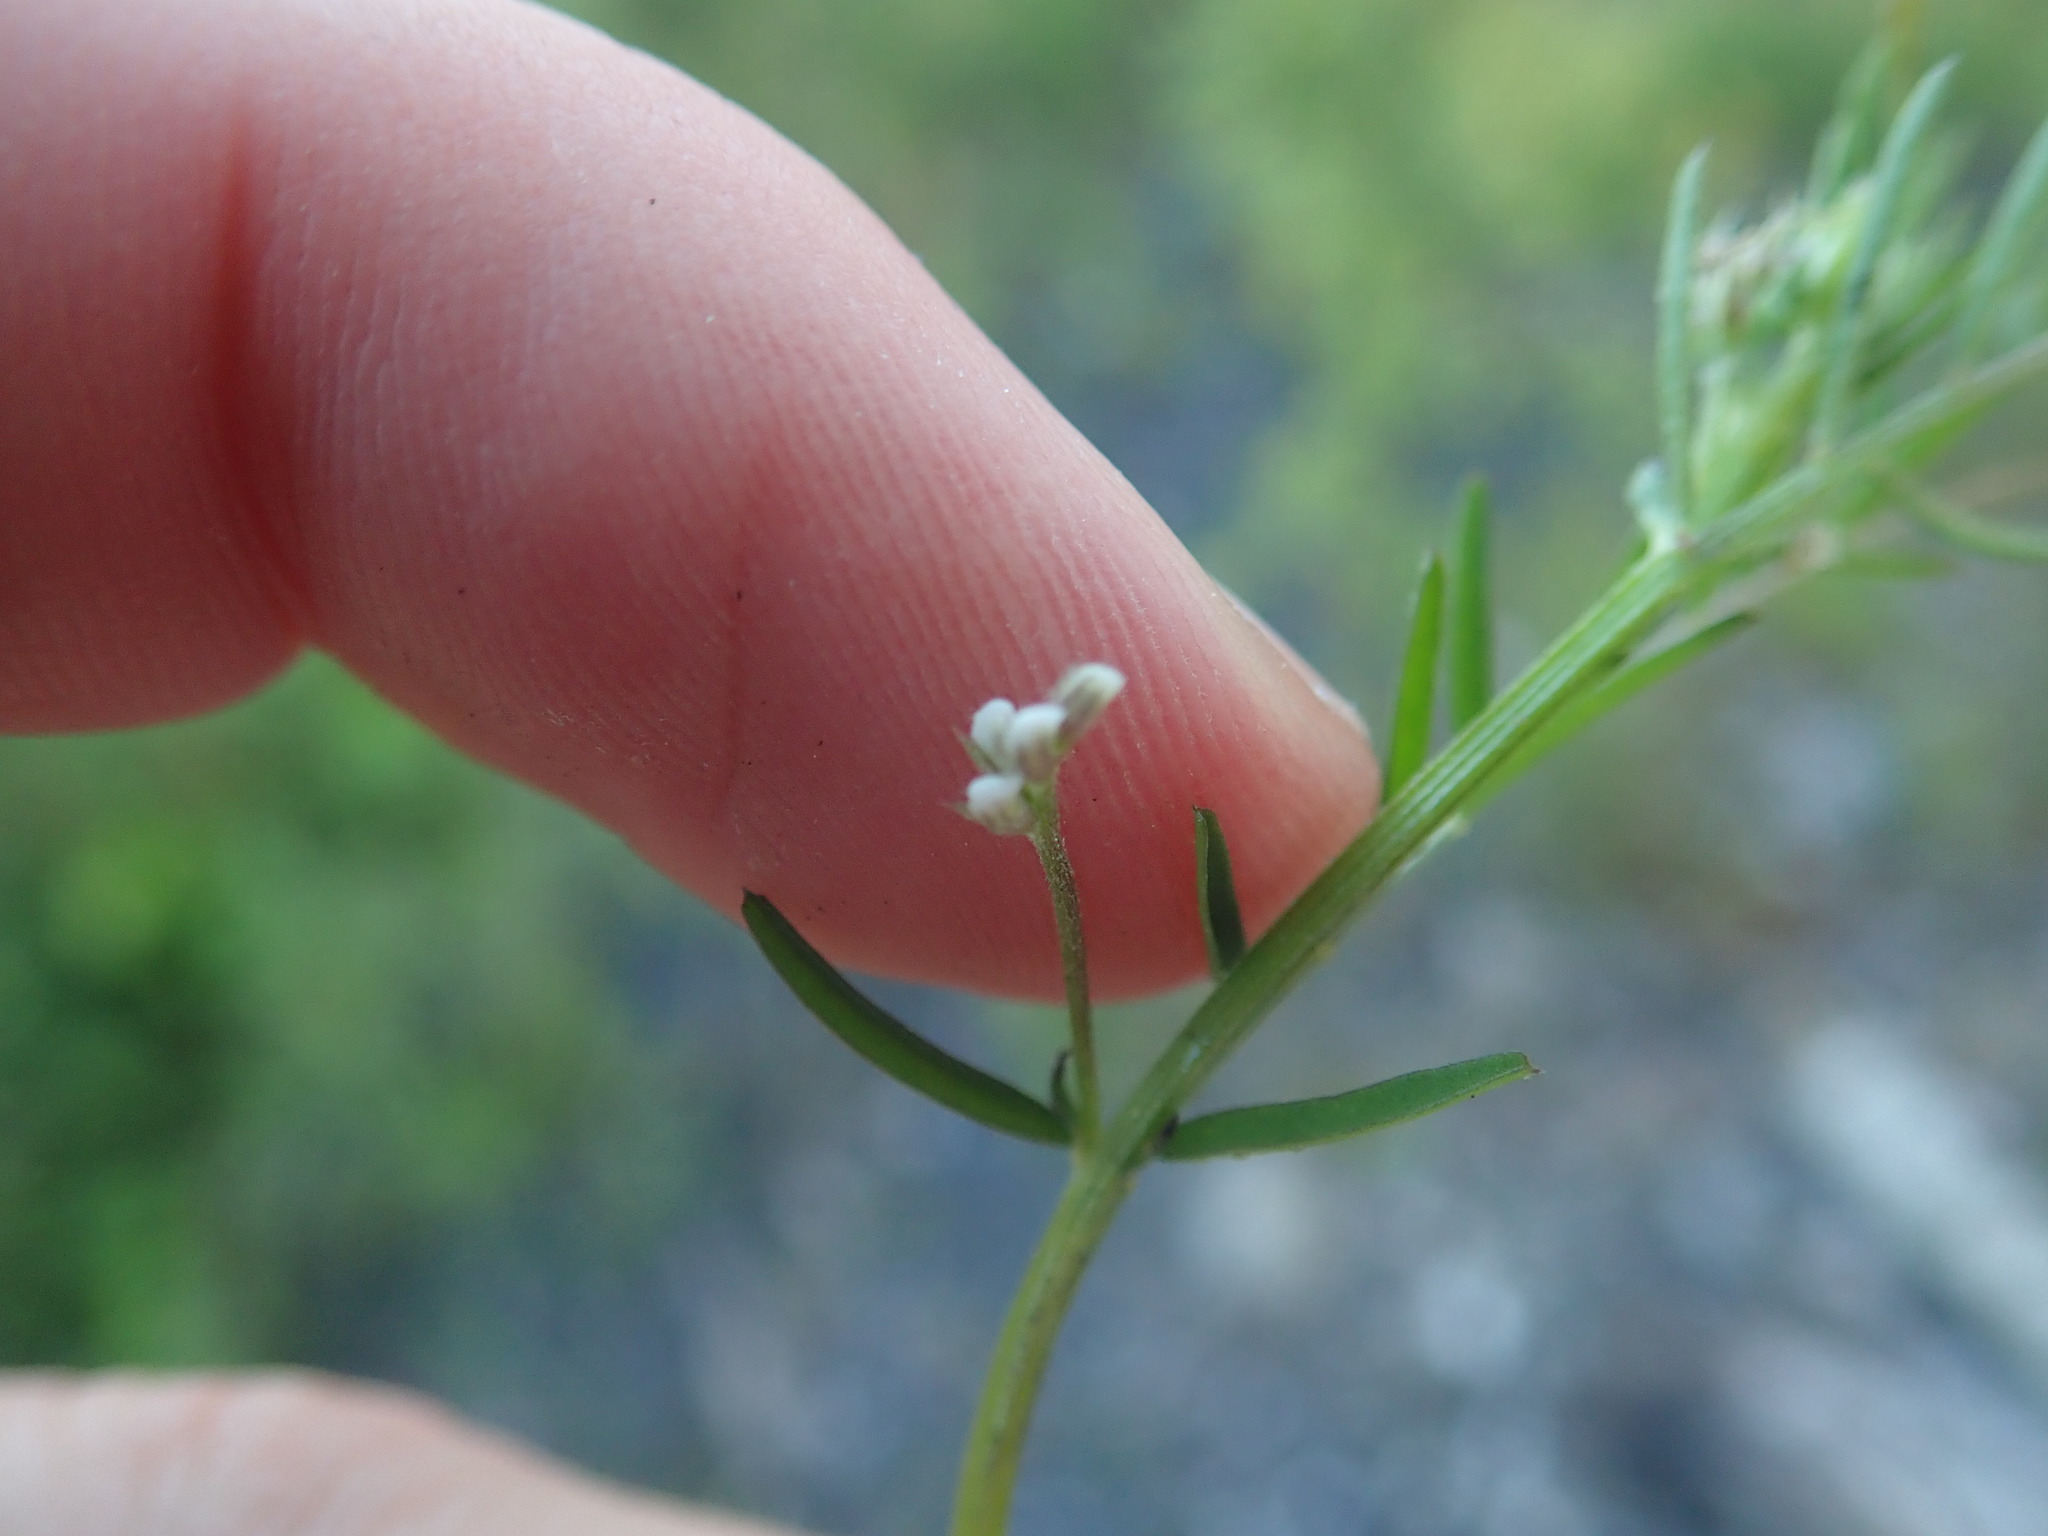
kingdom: Plantae
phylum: Tracheophyta
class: Magnoliopsida
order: Fabales
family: Fabaceae
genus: Vicia
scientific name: Vicia hirsuta
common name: Tiny vetch
